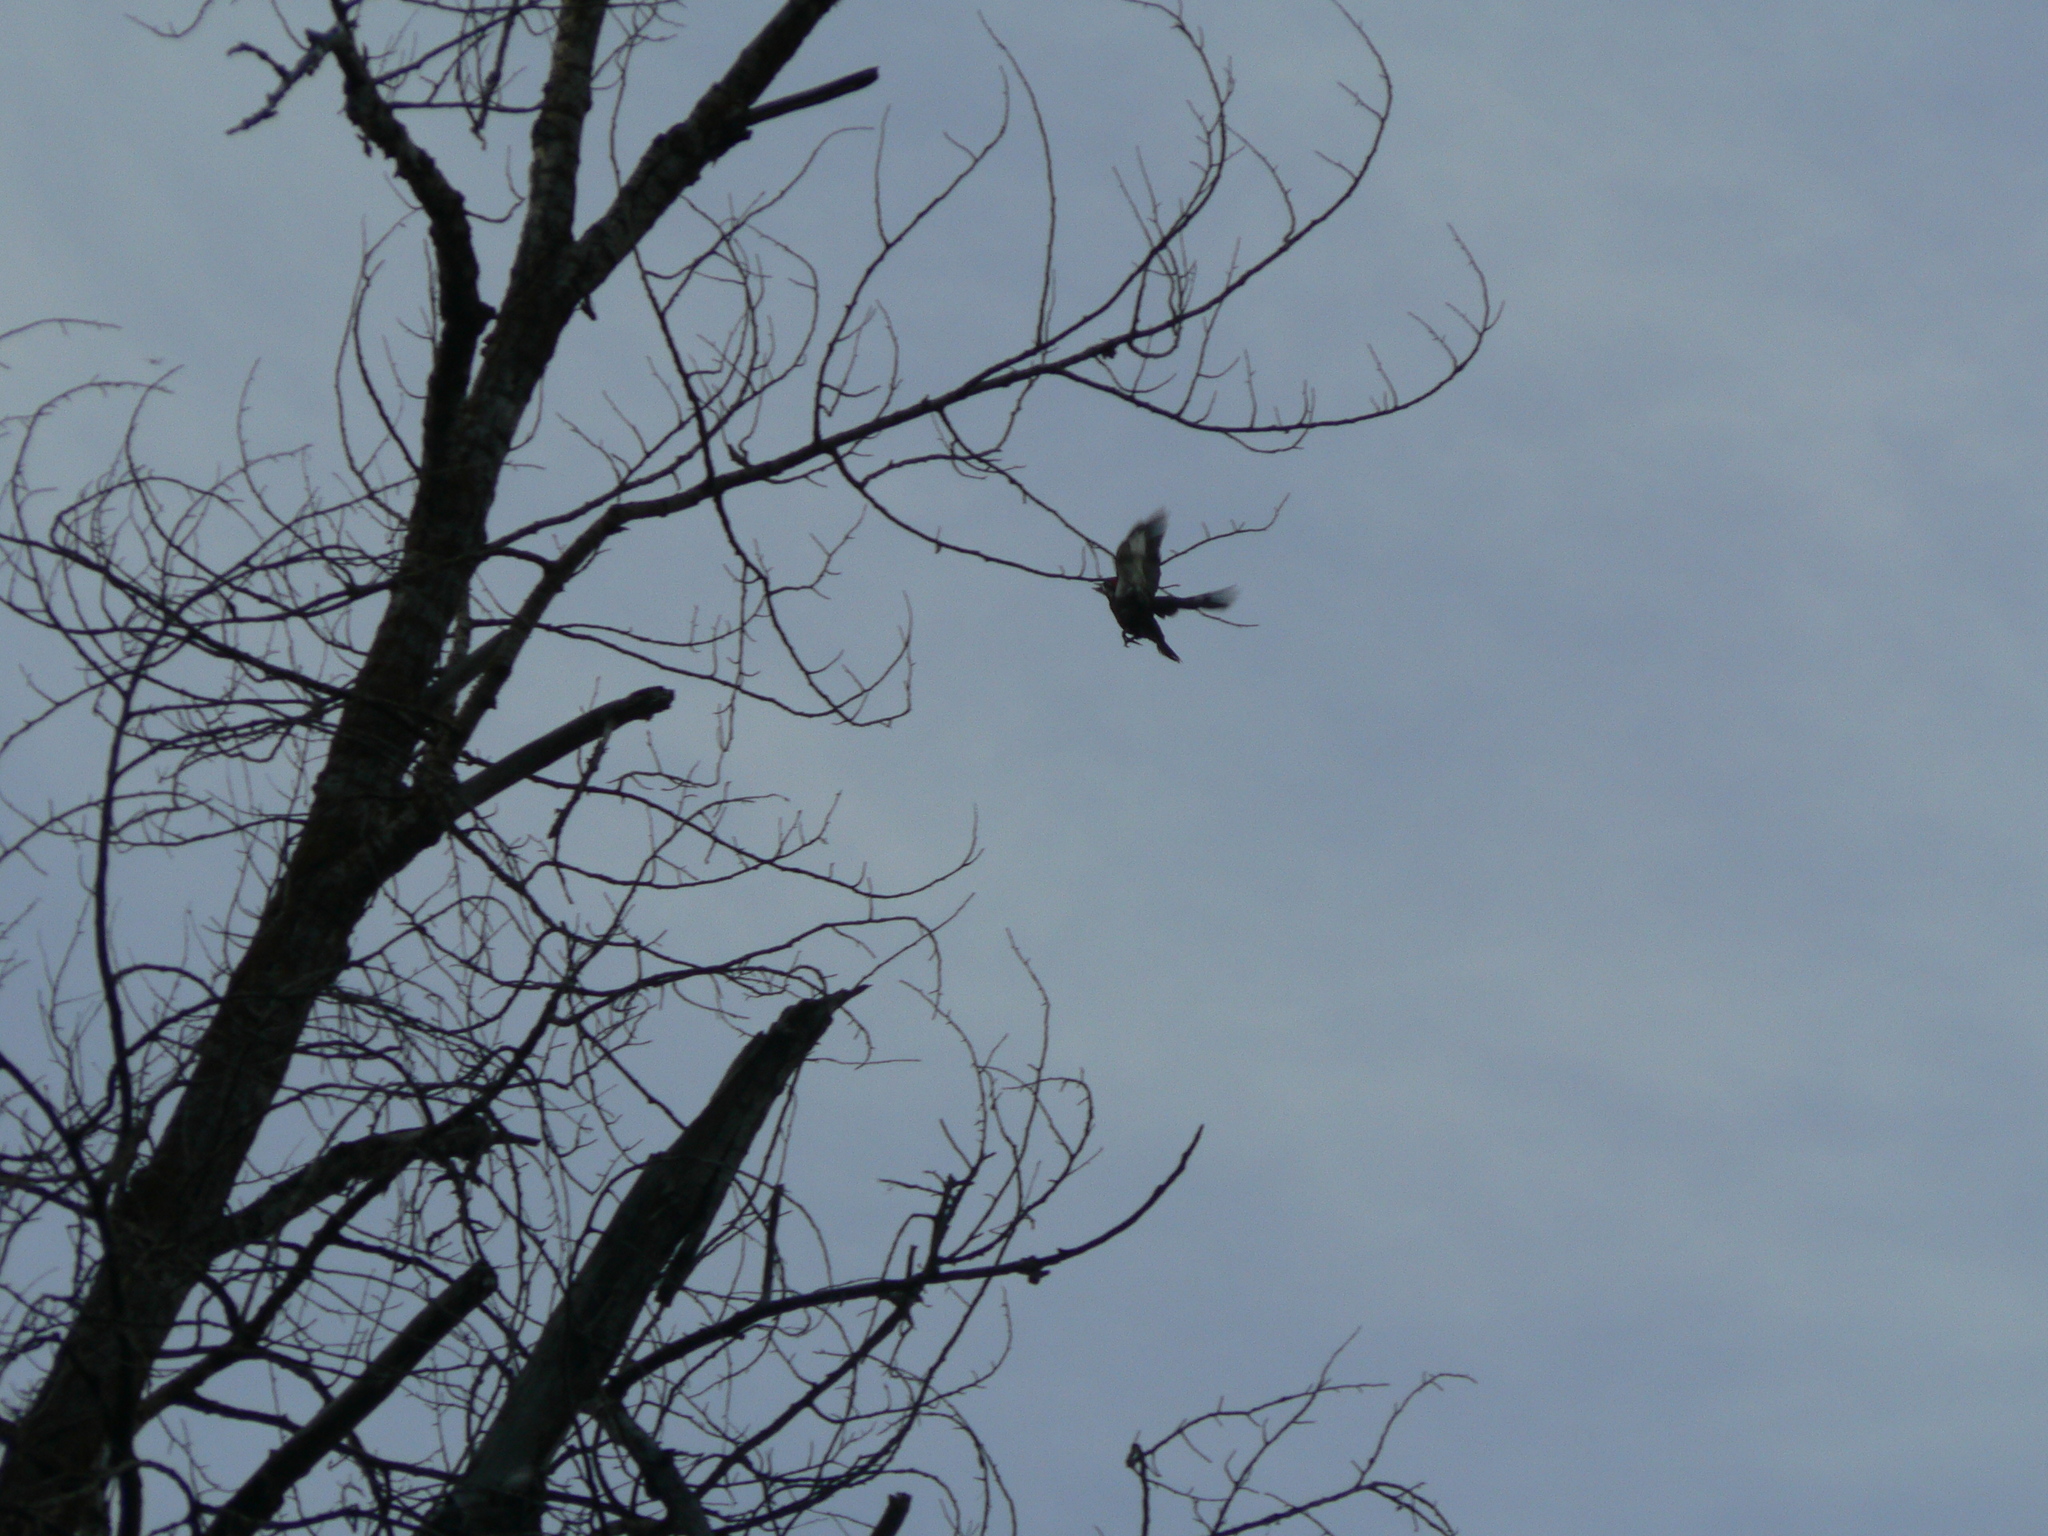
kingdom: Animalia
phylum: Chordata
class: Aves
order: Piciformes
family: Picidae
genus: Dryocopus
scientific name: Dryocopus pileatus
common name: Pileated woodpecker
